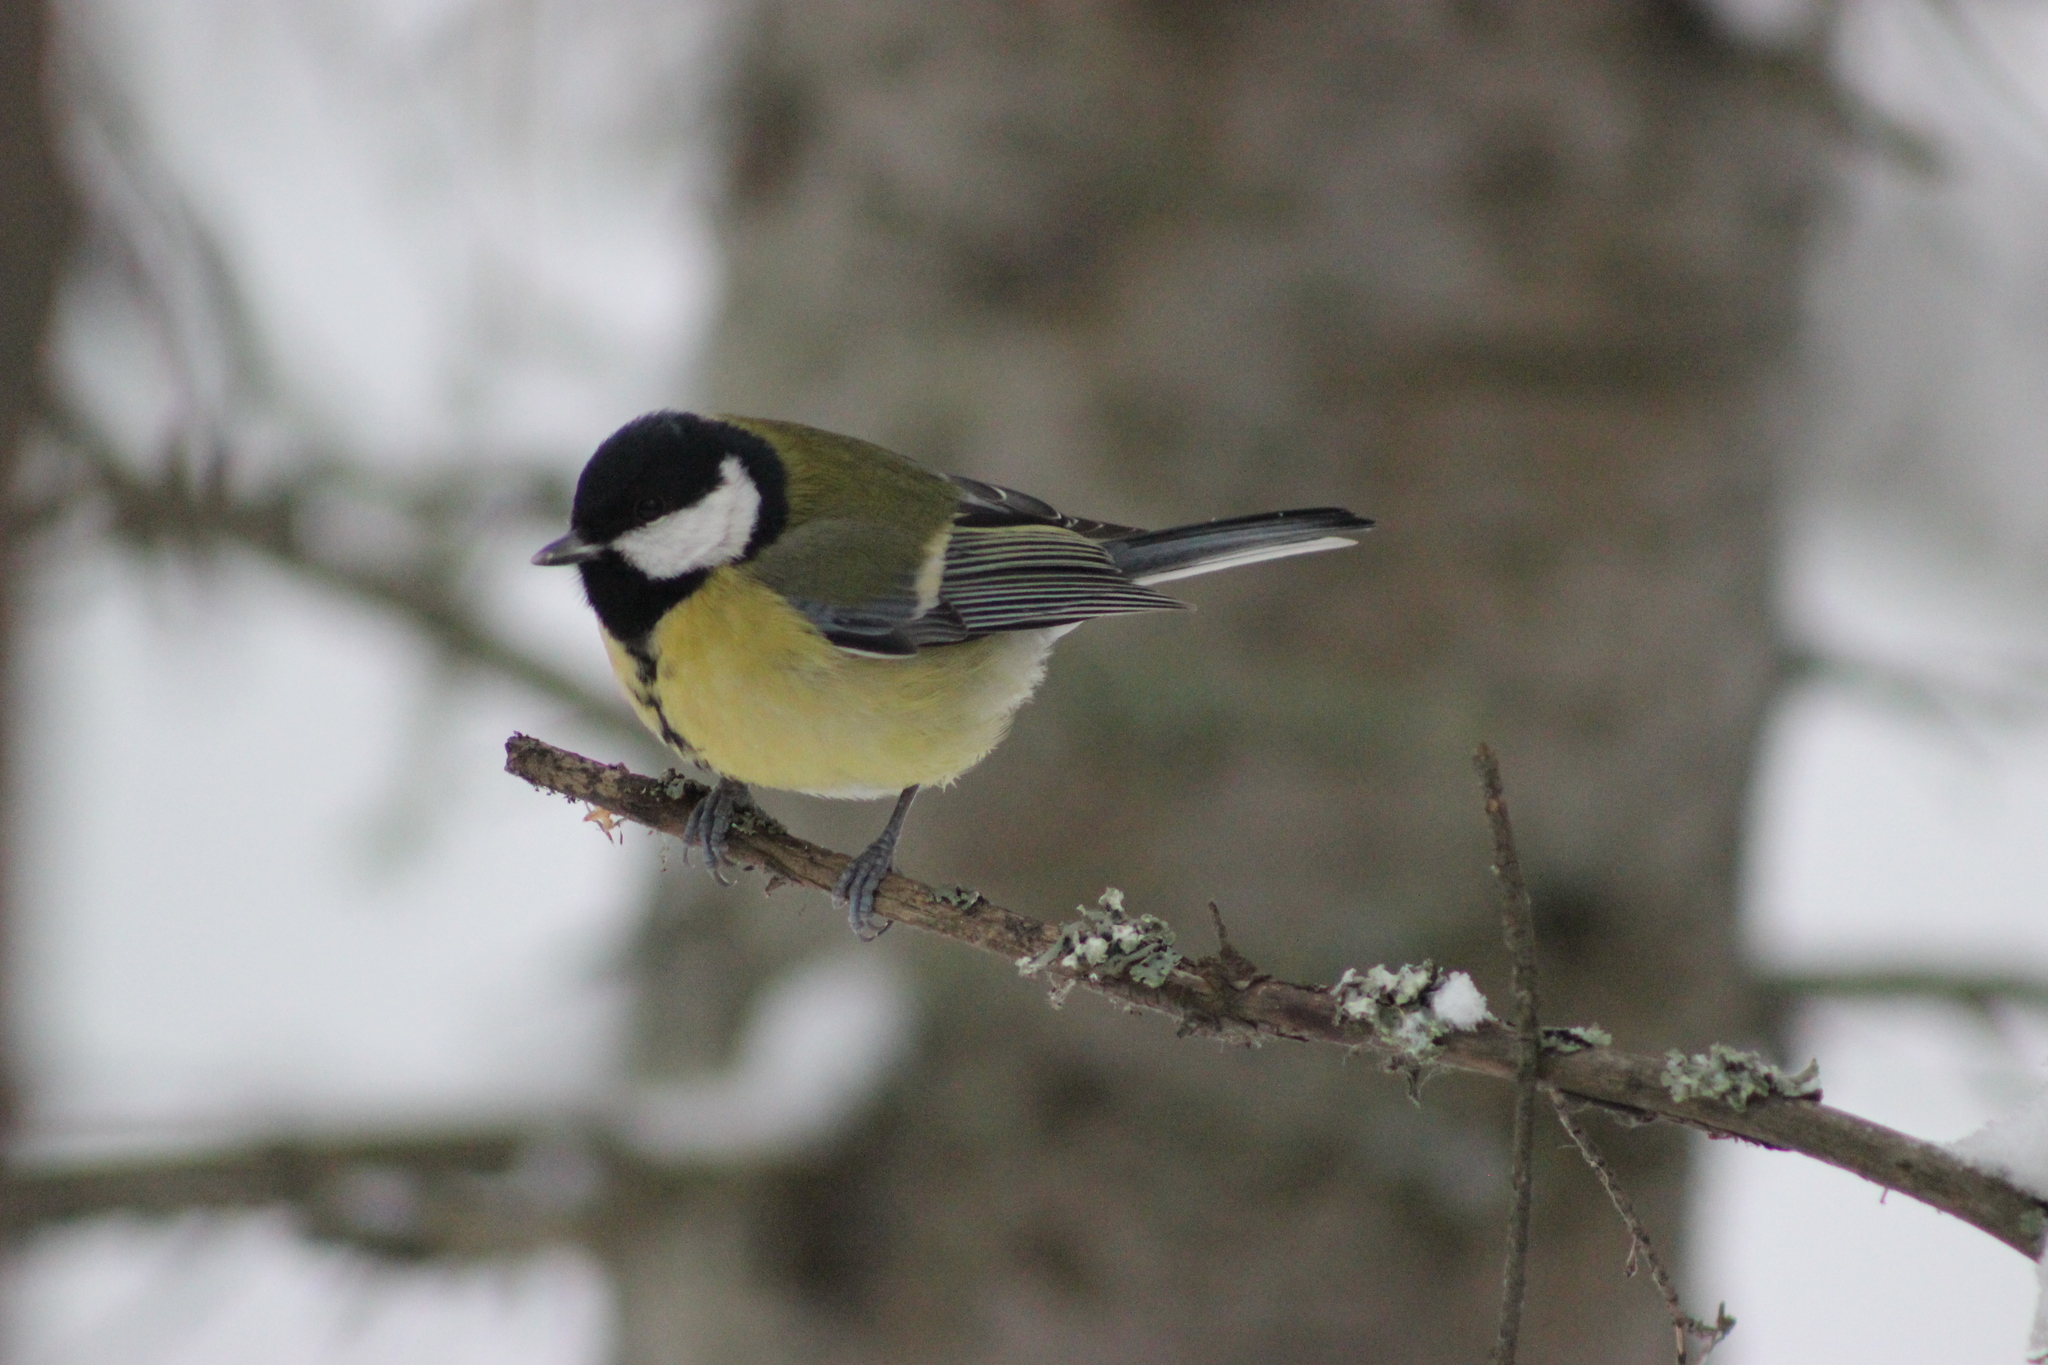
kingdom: Animalia
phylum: Chordata
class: Aves
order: Passeriformes
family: Paridae
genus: Parus
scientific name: Parus major
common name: Great tit
